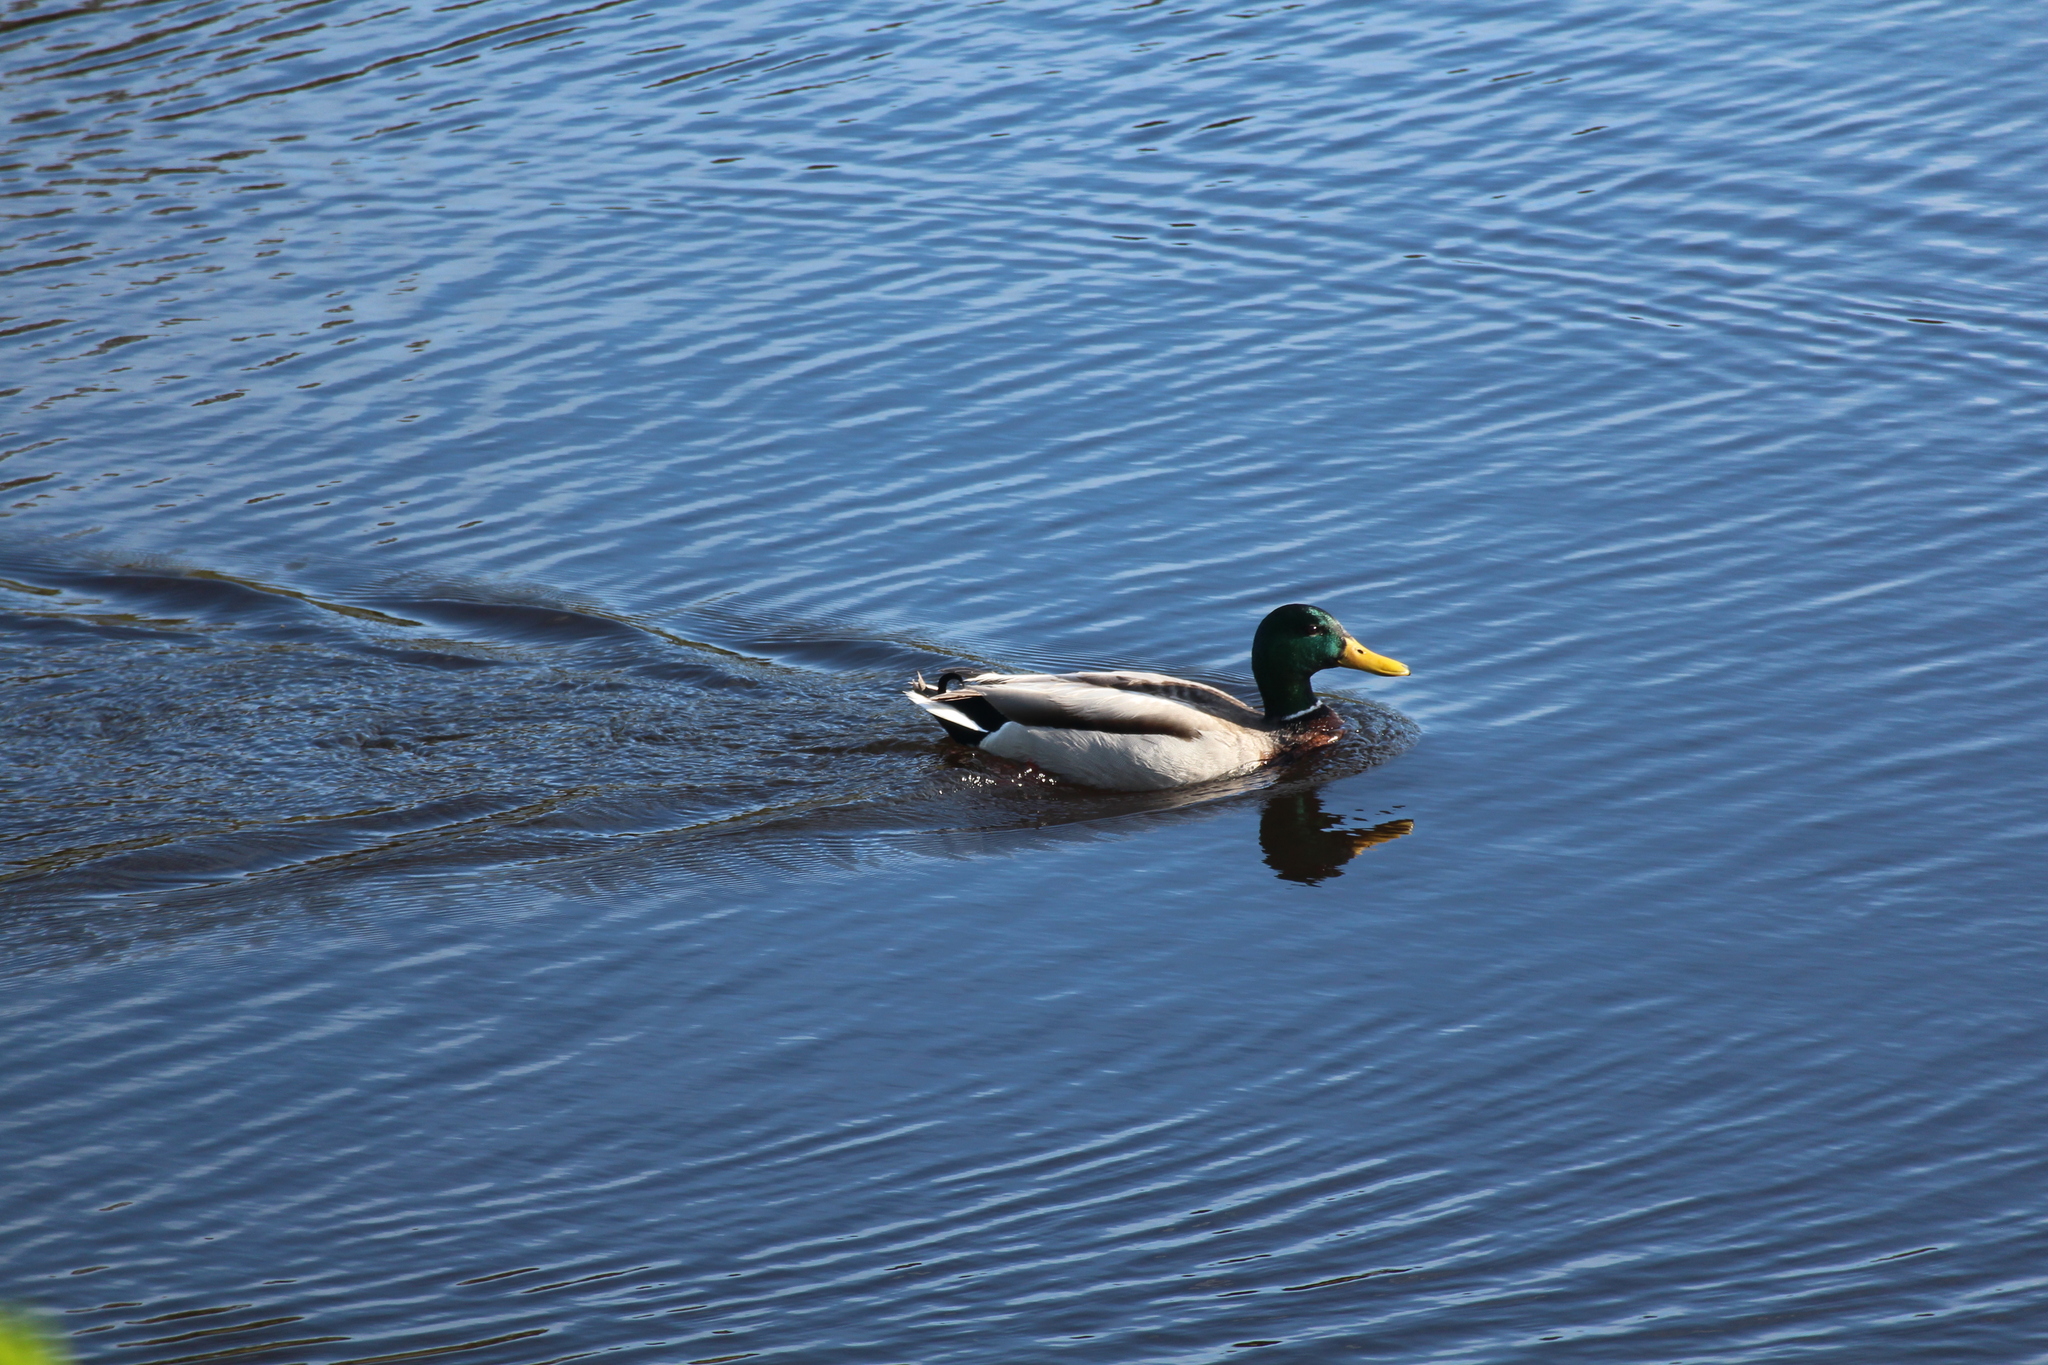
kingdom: Animalia
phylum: Chordata
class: Aves
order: Anseriformes
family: Anatidae
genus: Anas
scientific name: Anas platyrhynchos
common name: Mallard
